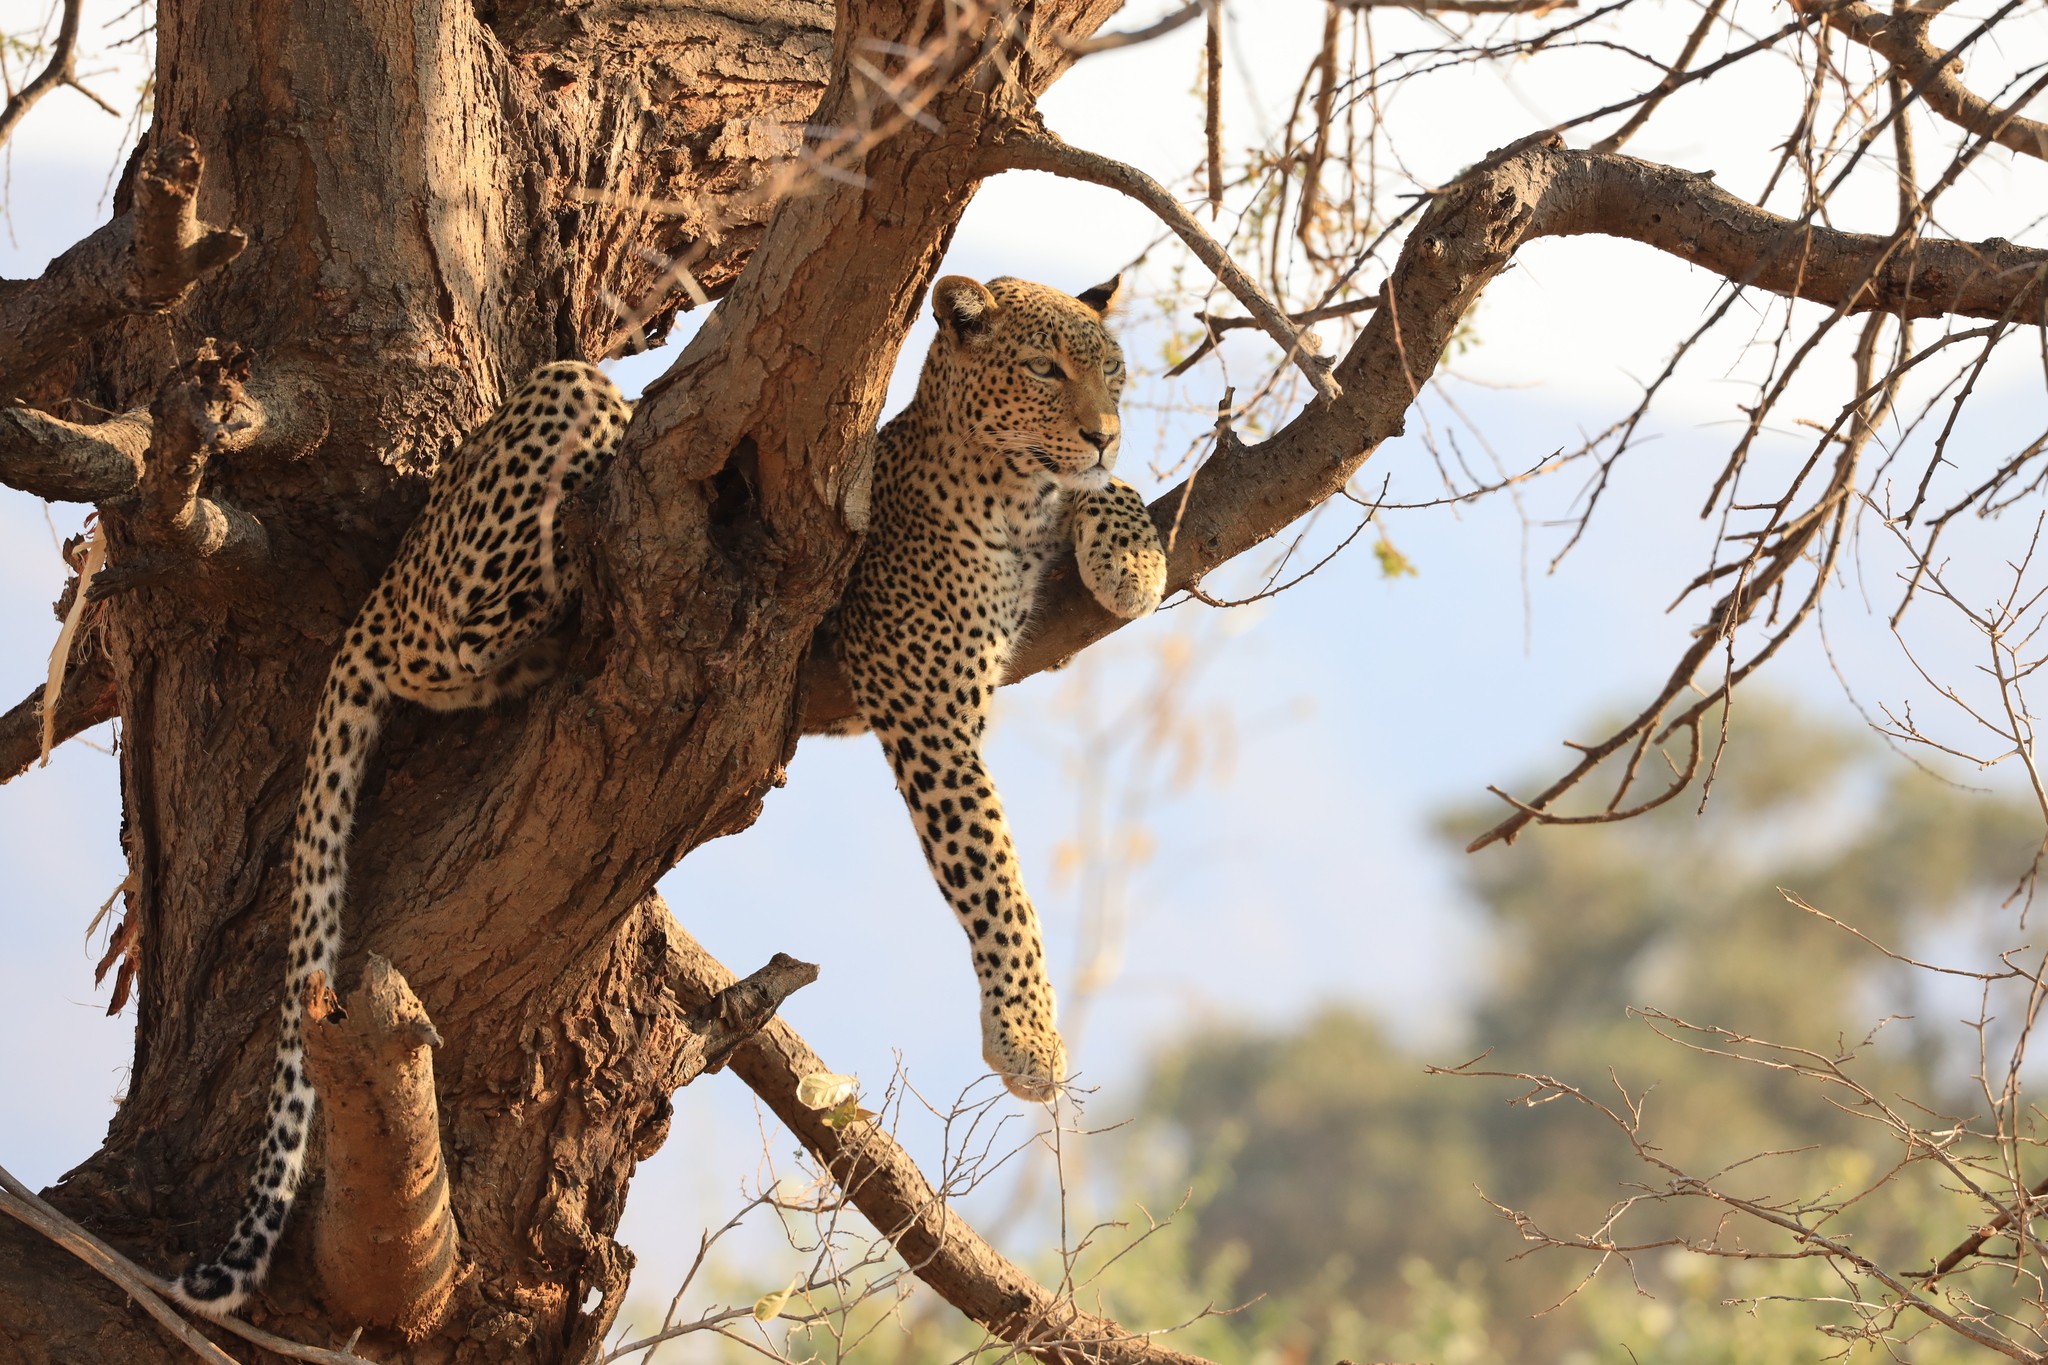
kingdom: Animalia
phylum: Chordata
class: Mammalia
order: Carnivora
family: Felidae
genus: Panthera
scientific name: Panthera pardus
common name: Leopard
